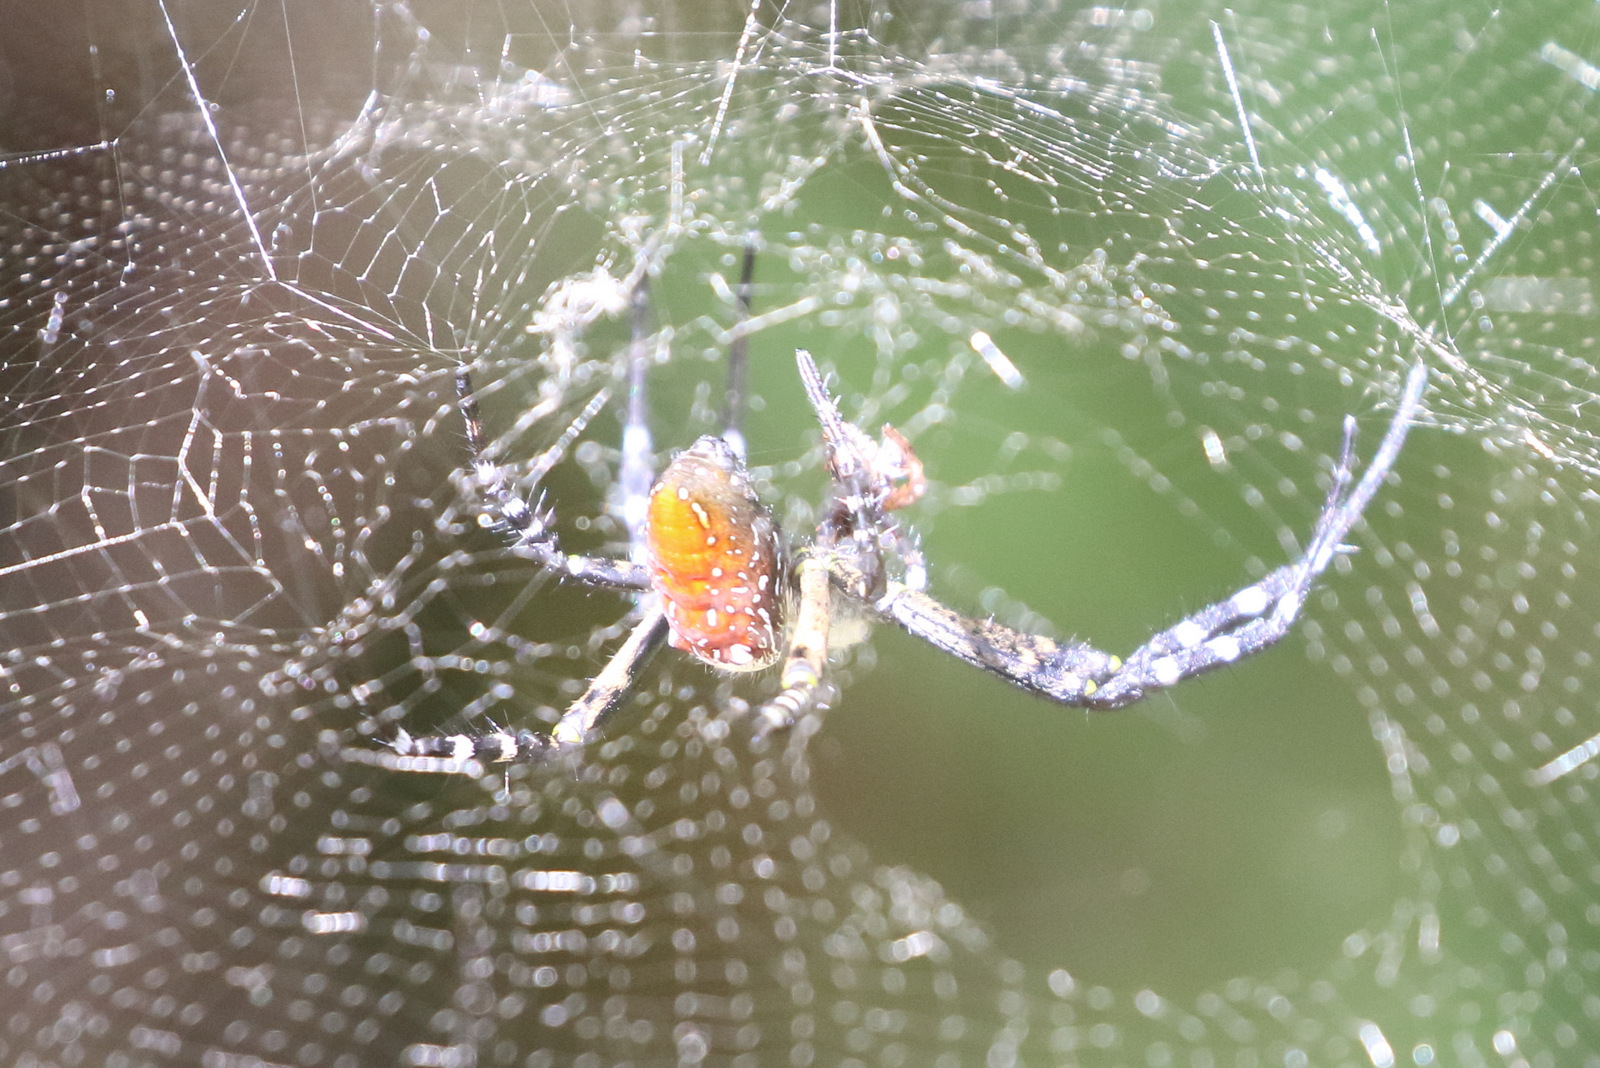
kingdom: Chromista
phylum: Ochrophyta
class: Dictyochophyceae
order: Pedinellales
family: Cyrtophoraceae
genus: Cyrtophora
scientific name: Cyrtophora moluccensis
